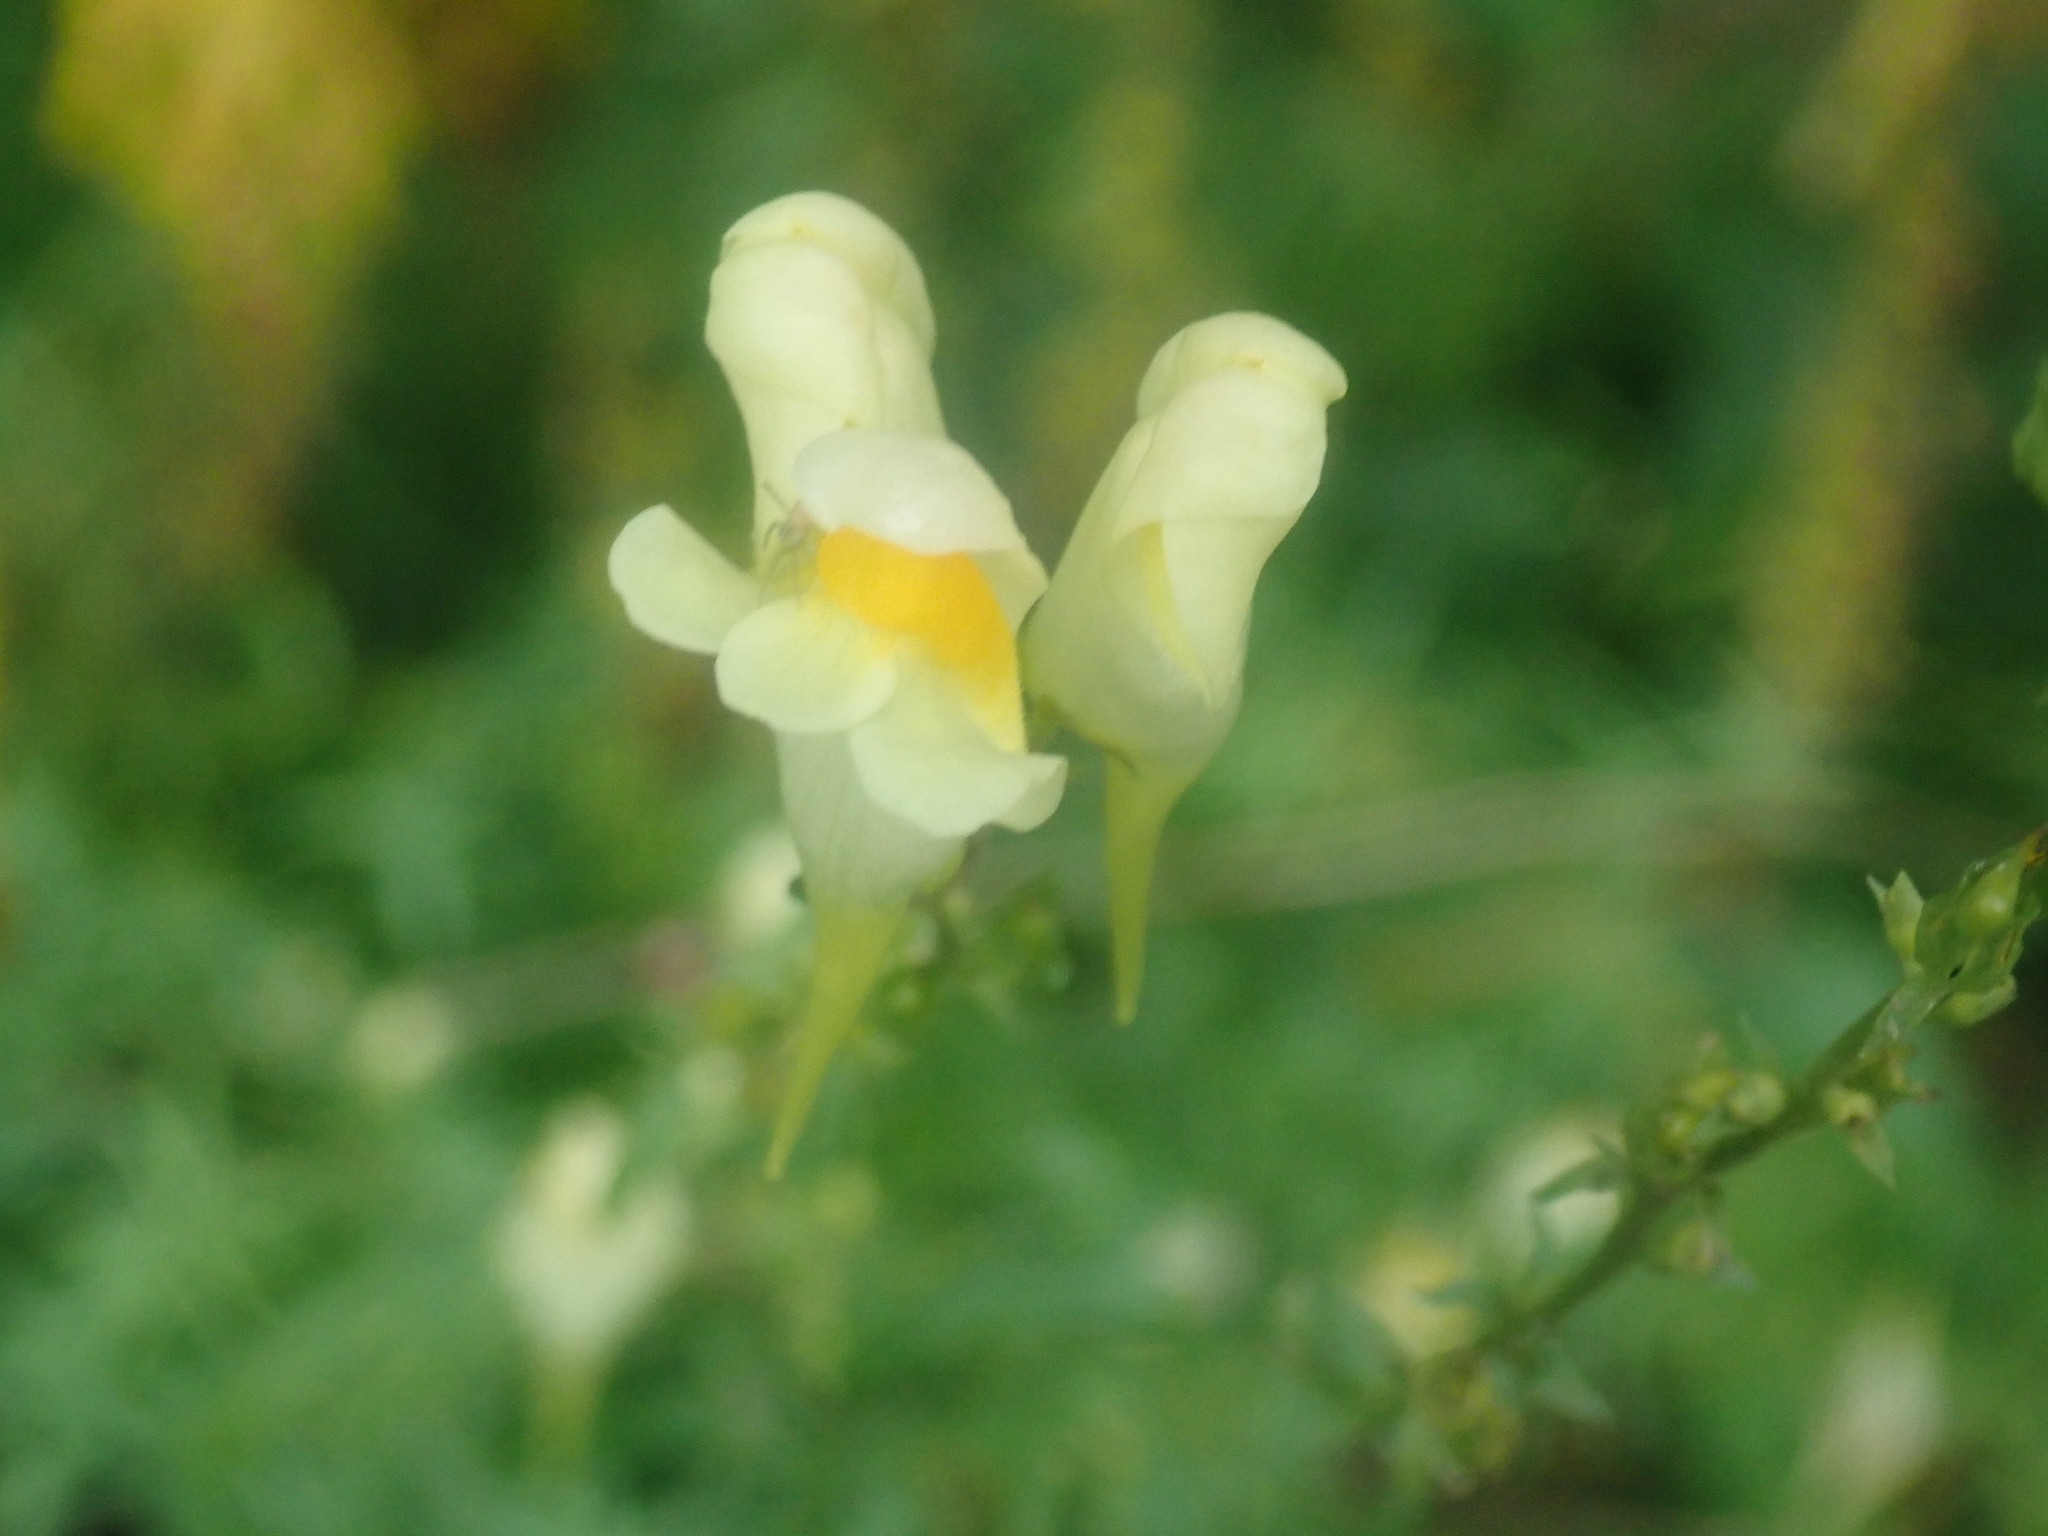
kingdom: Plantae
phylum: Tracheophyta
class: Magnoliopsida
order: Lamiales
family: Plantaginaceae
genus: Linaria
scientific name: Linaria vulgaris
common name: Butter and eggs
